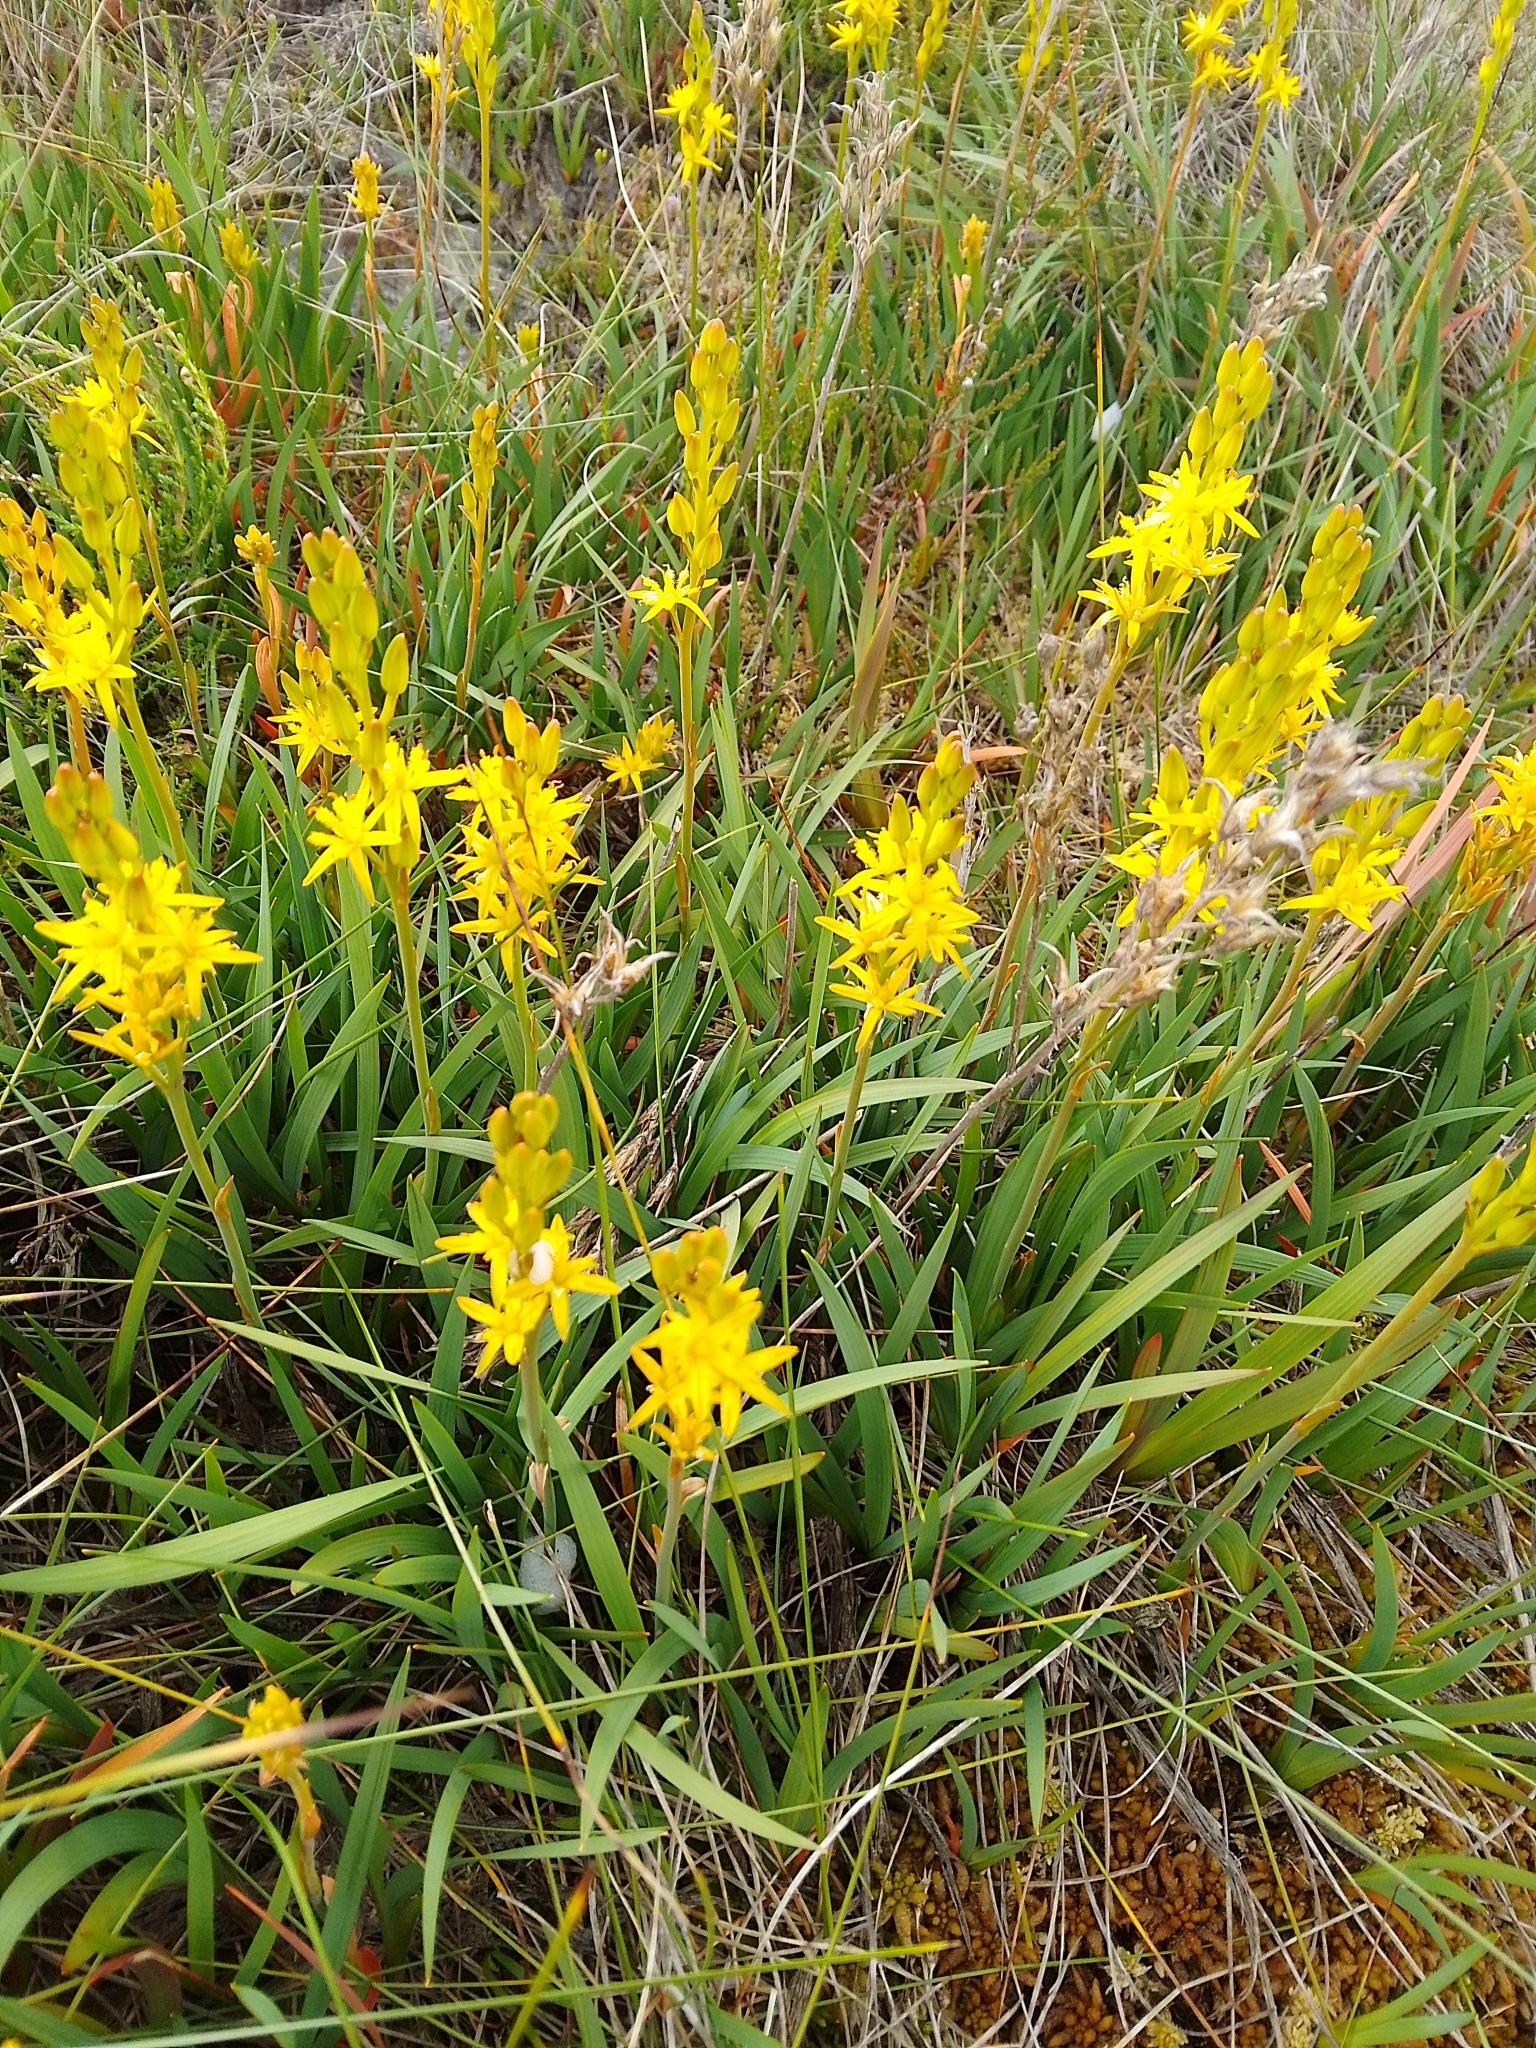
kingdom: Plantae
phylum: Tracheophyta
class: Liliopsida
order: Dioscoreales
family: Nartheciaceae
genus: Narthecium
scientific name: Narthecium ossifragum
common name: Bog asphodel
